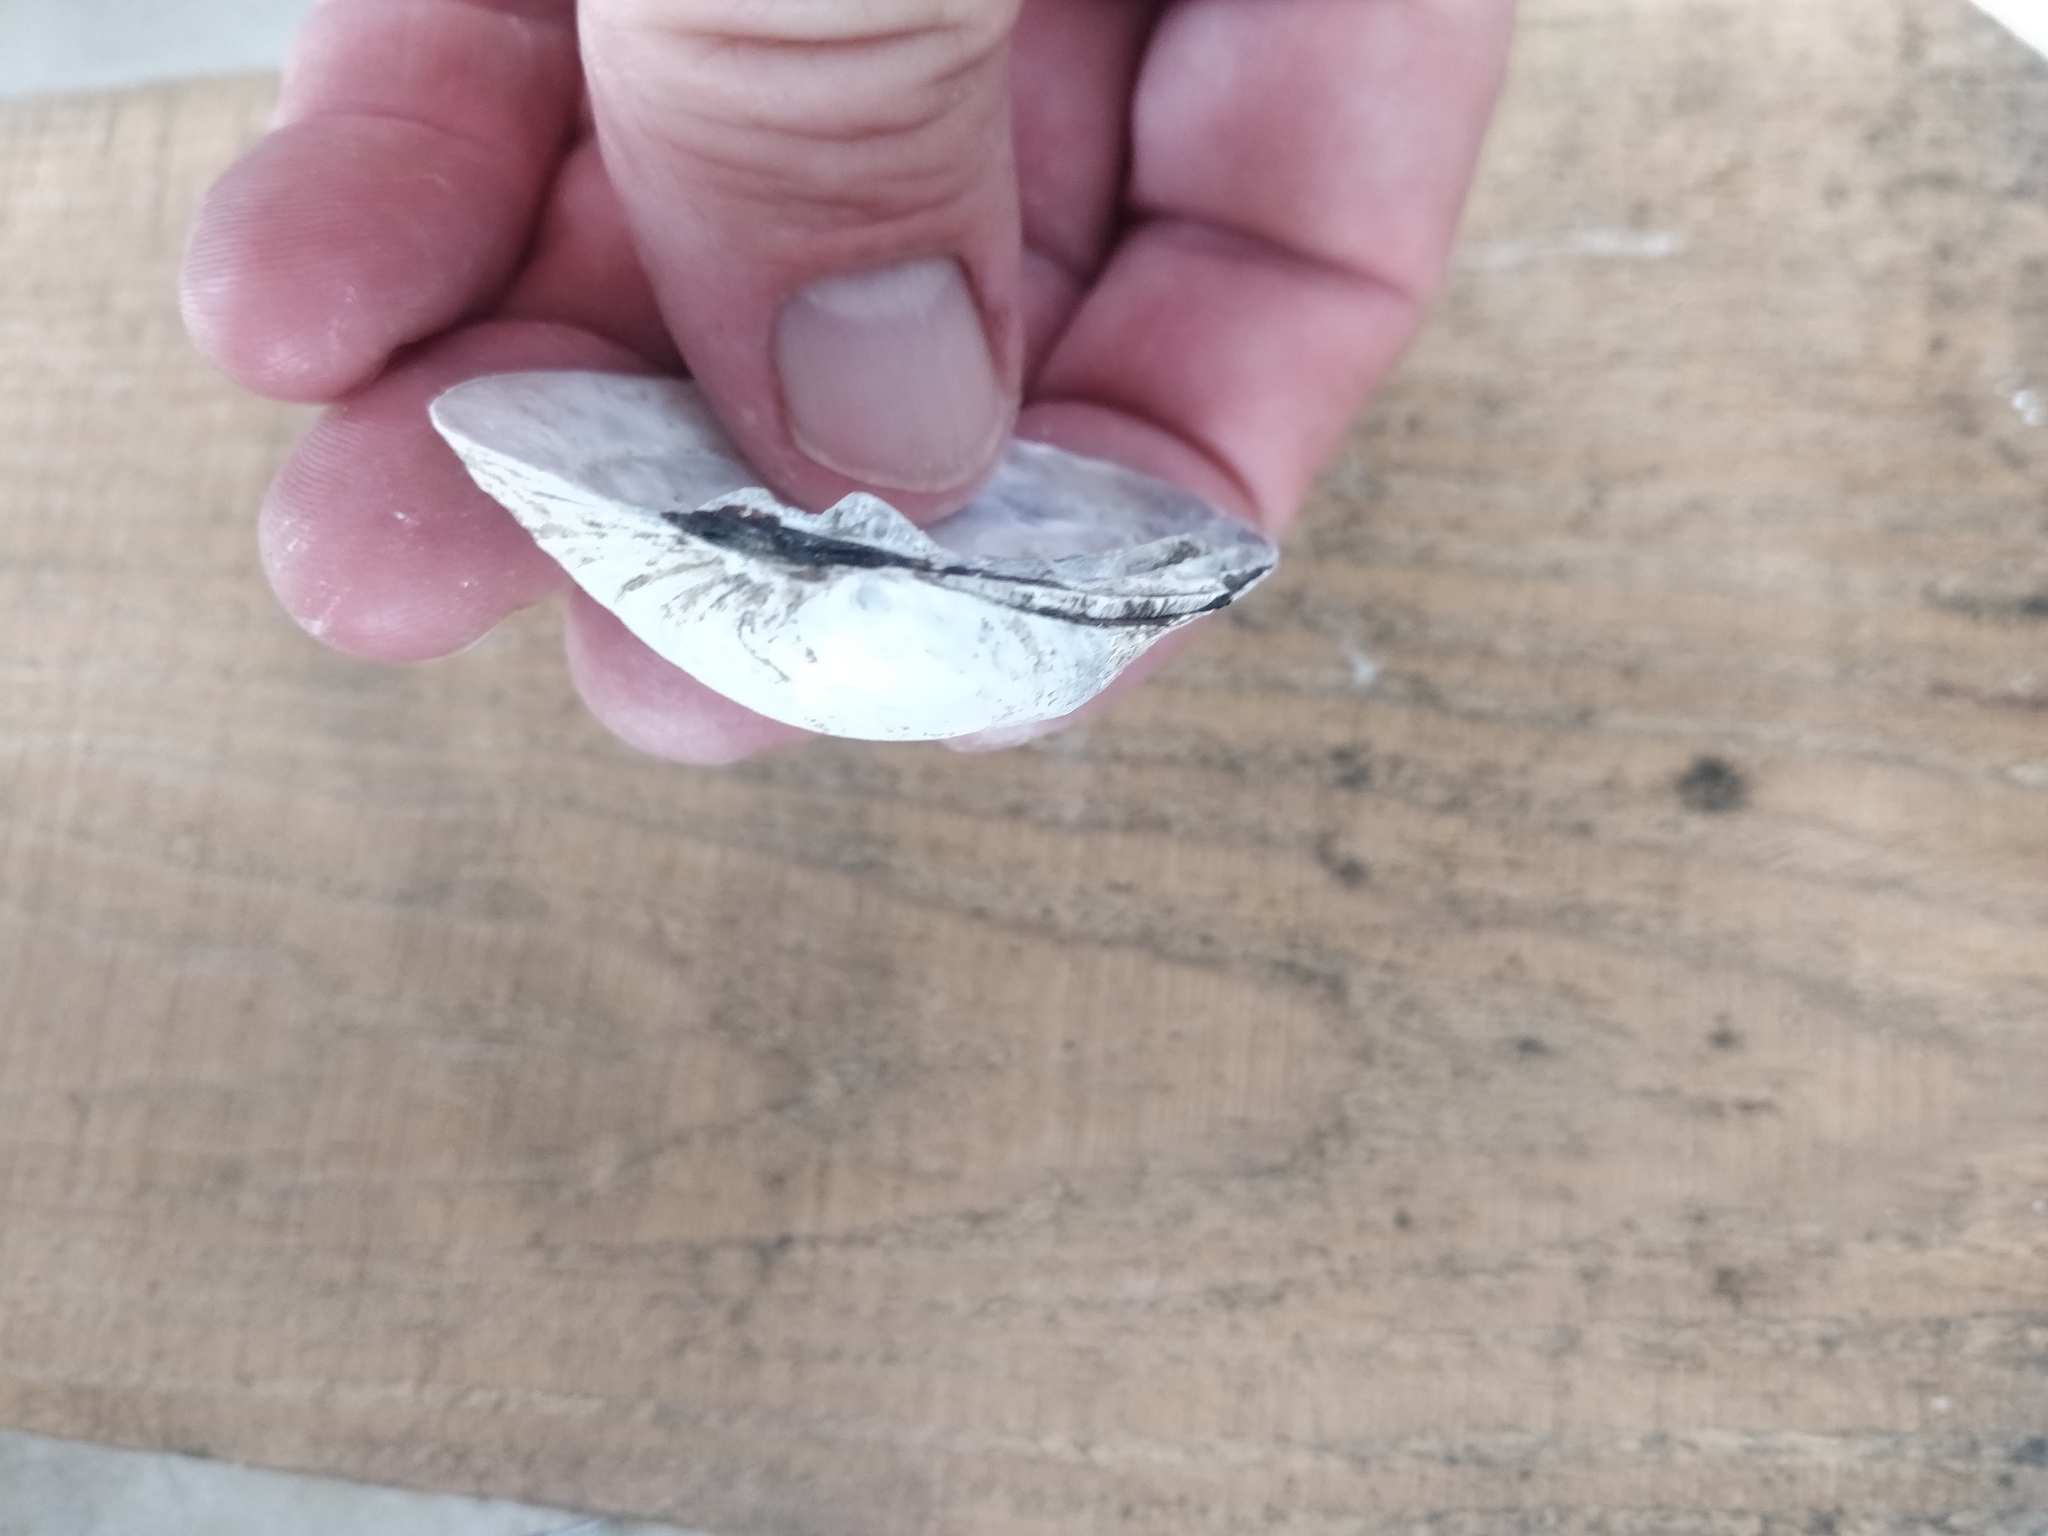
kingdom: Animalia
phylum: Mollusca
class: Bivalvia
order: Unionida
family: Unionidae
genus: Fusconaia
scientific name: Fusconaia flava
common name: Wabash pigtoe
